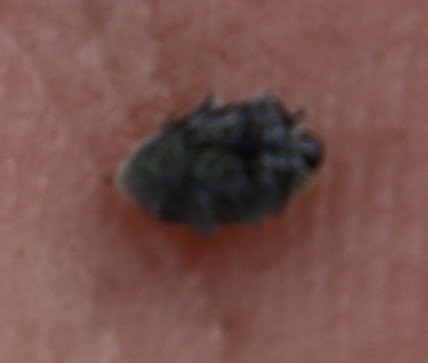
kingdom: Plantae
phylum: Tracheophyta
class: Magnoliopsida
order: Asterales
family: Campanulaceae
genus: Roella
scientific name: Roella ciliata
